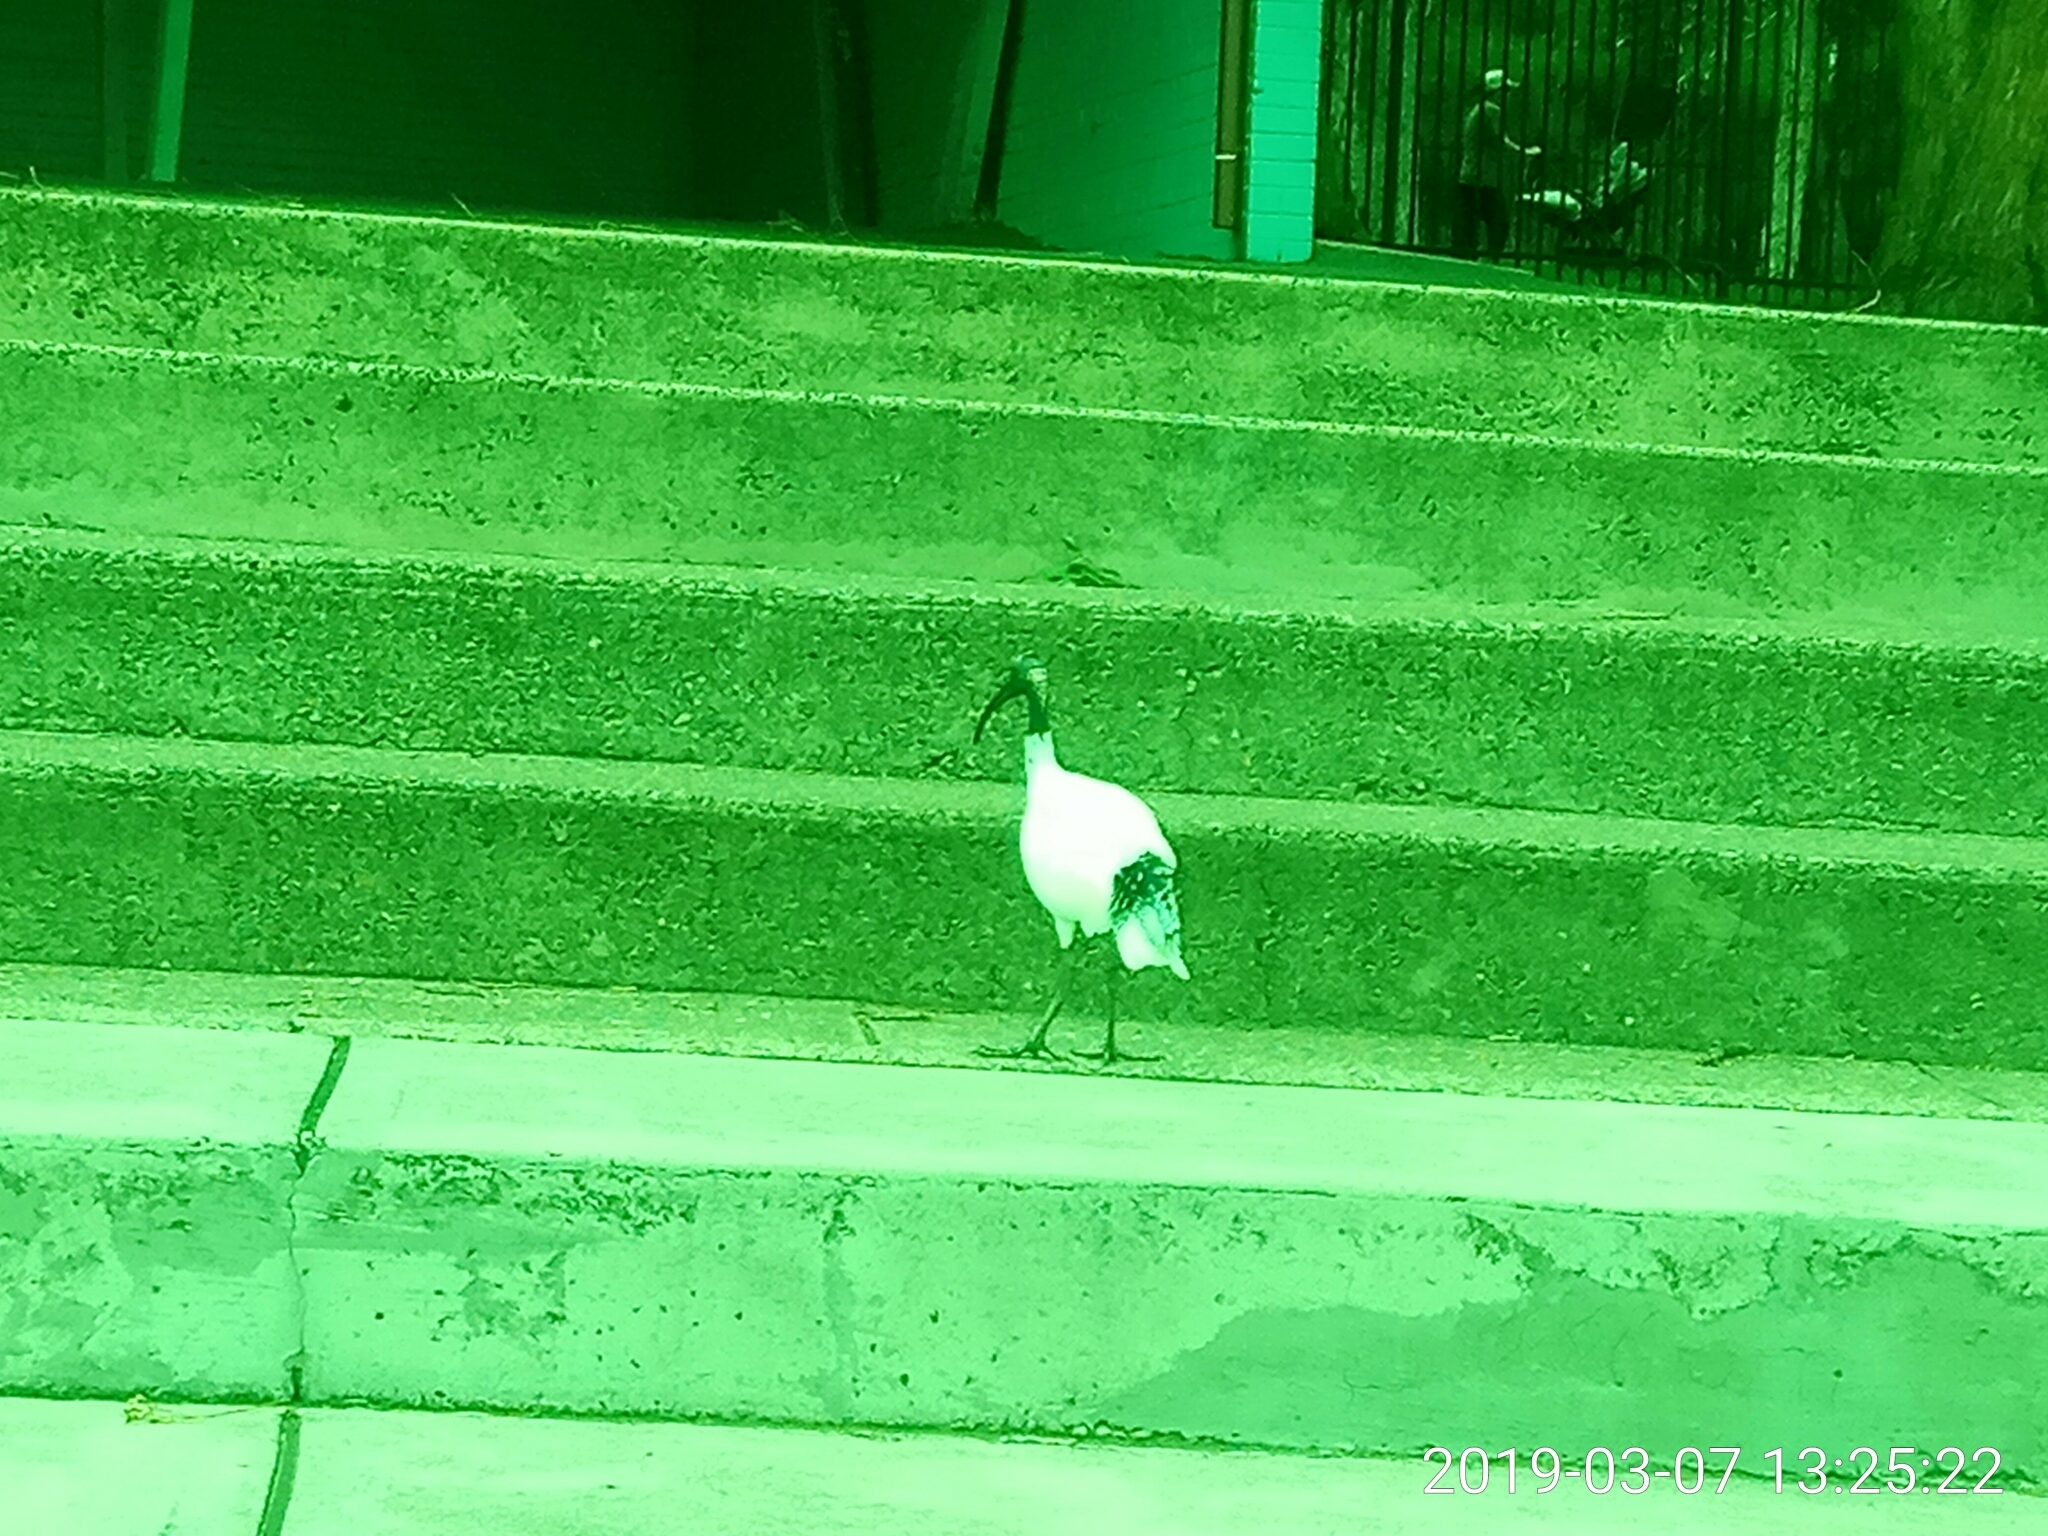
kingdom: Animalia
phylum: Chordata
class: Aves
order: Pelecaniformes
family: Threskiornithidae
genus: Threskiornis
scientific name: Threskiornis molucca
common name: Australian white ibis
